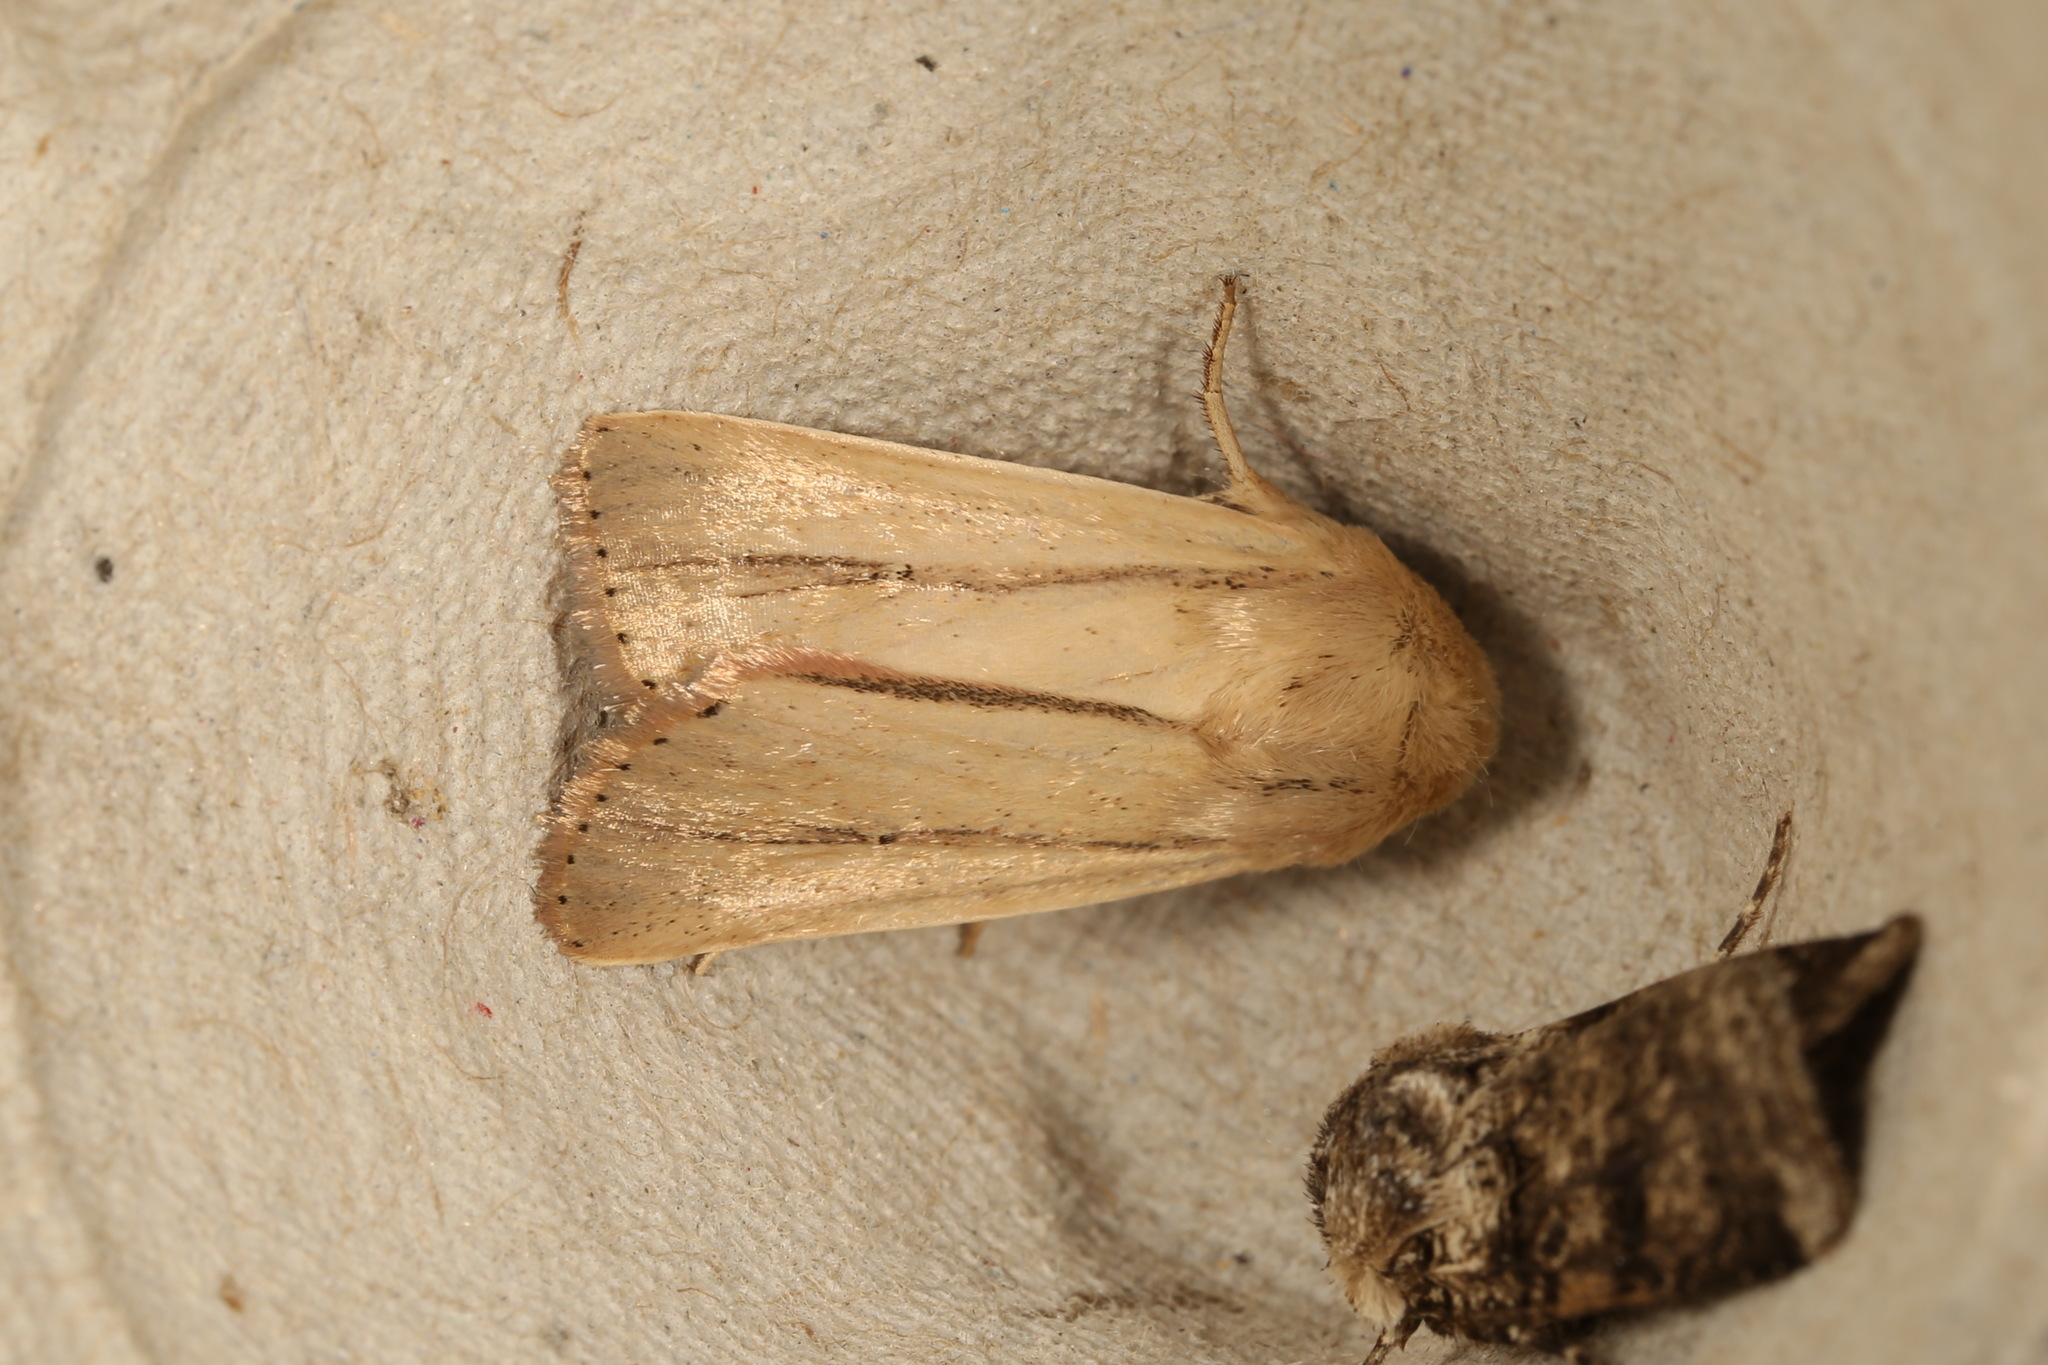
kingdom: Animalia
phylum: Arthropoda
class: Insecta
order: Lepidoptera
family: Noctuidae
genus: Leucania
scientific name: Leucania diatrecta
